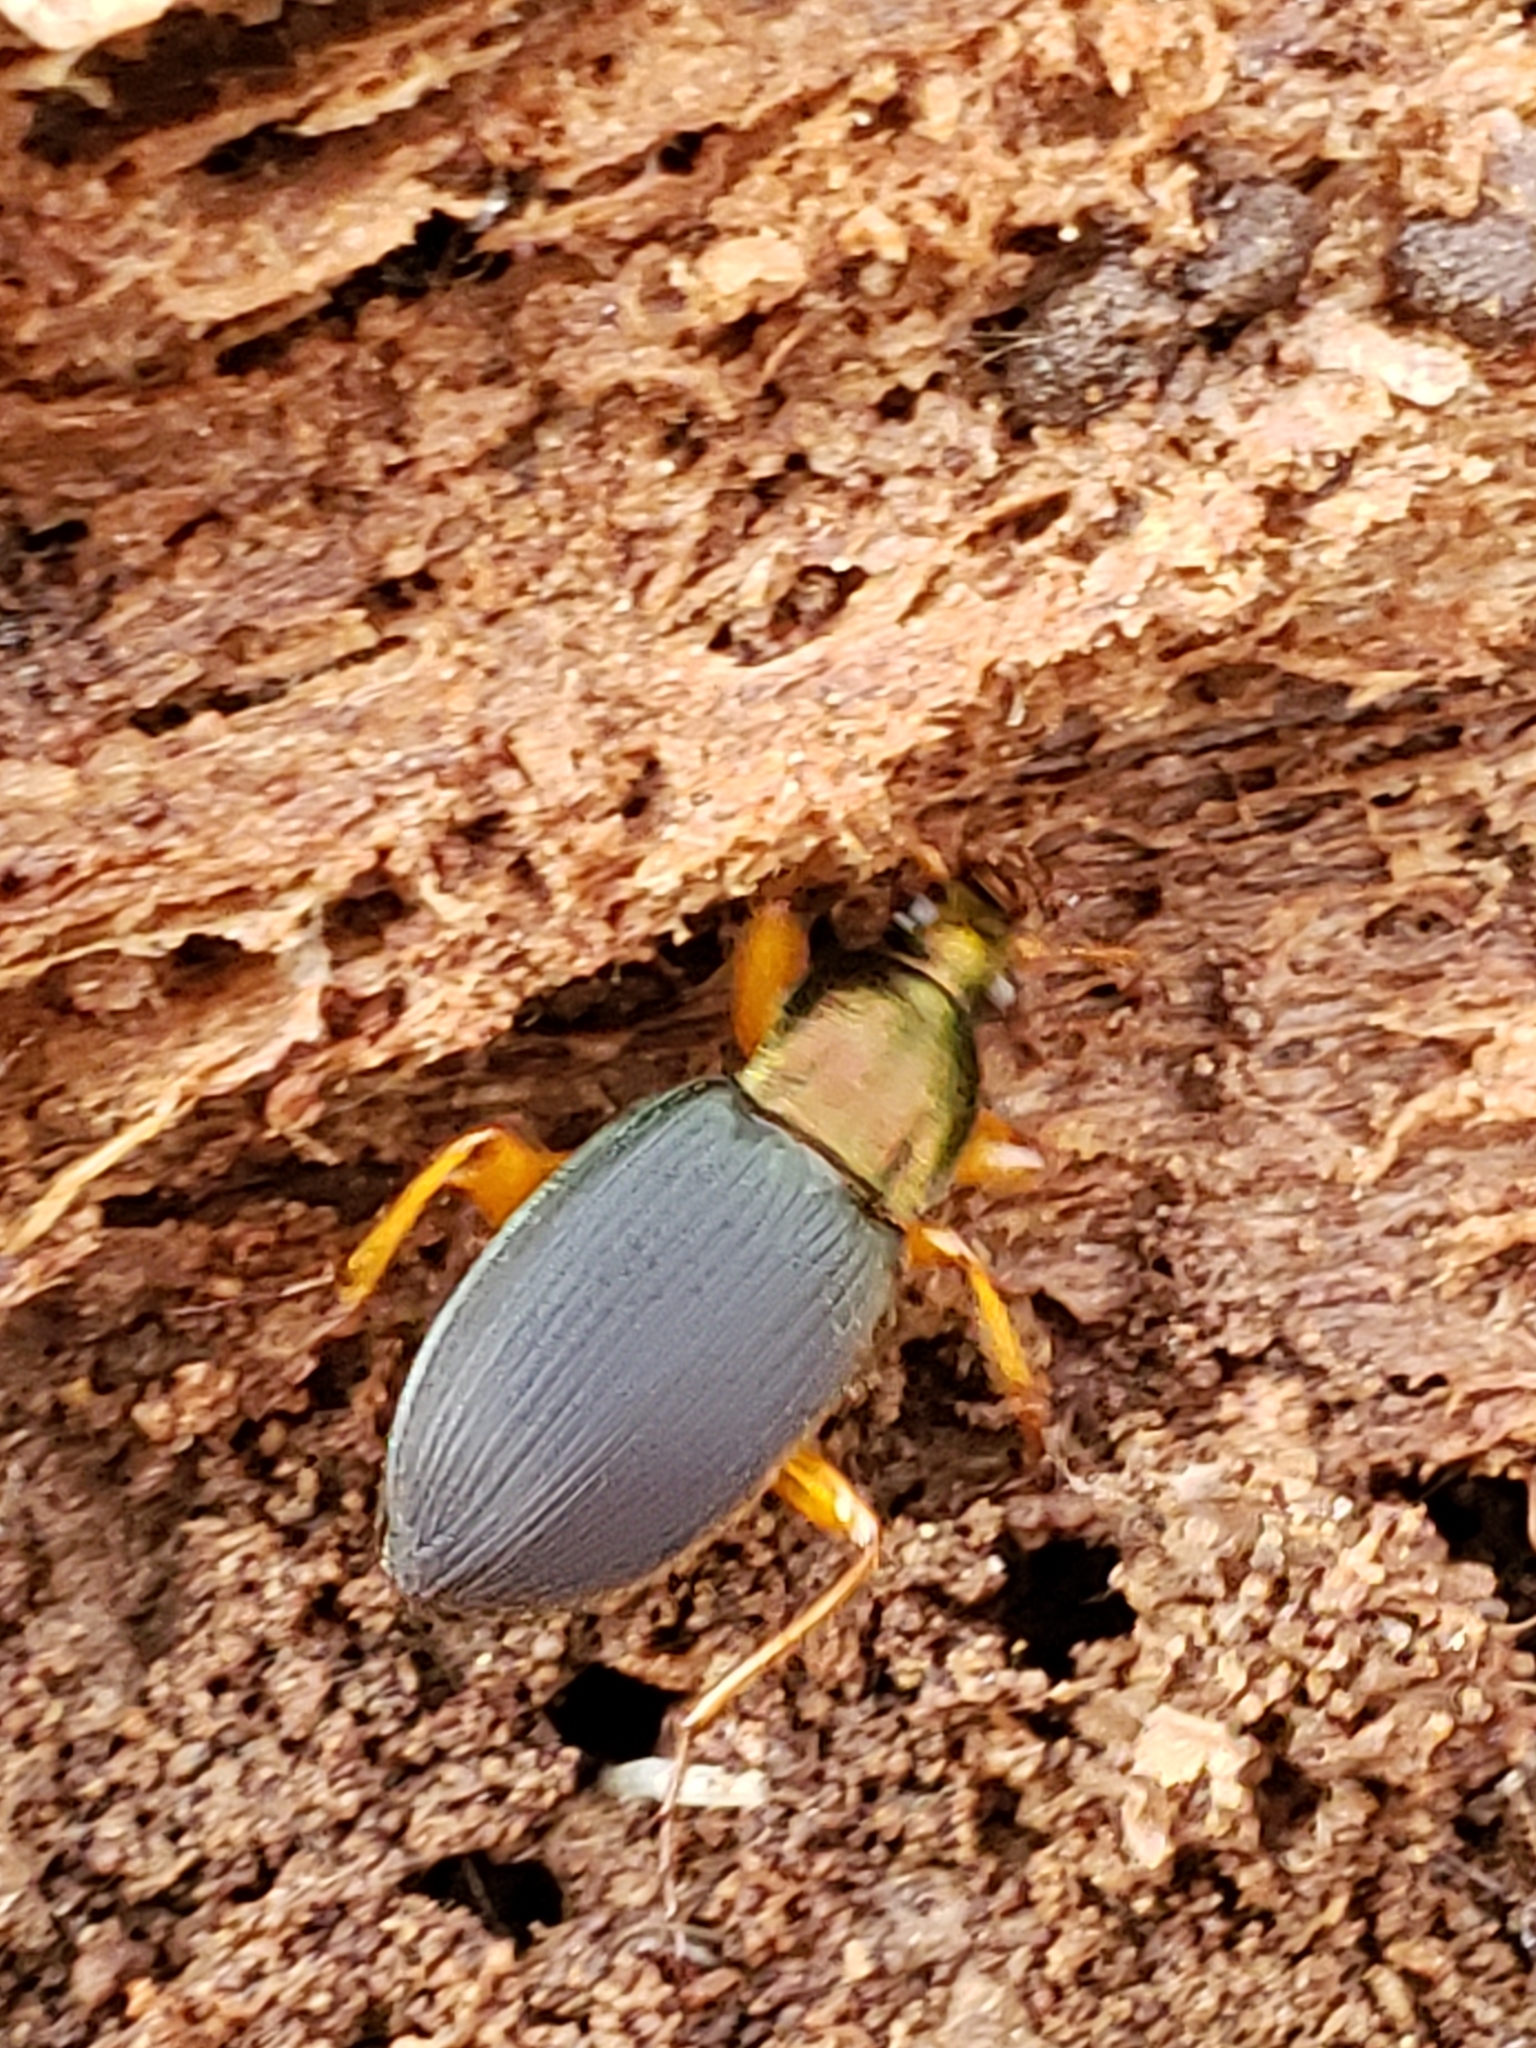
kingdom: Animalia
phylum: Arthropoda
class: Insecta
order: Coleoptera
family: Carabidae
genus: Chlaenius
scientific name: Chlaenius aestivus
